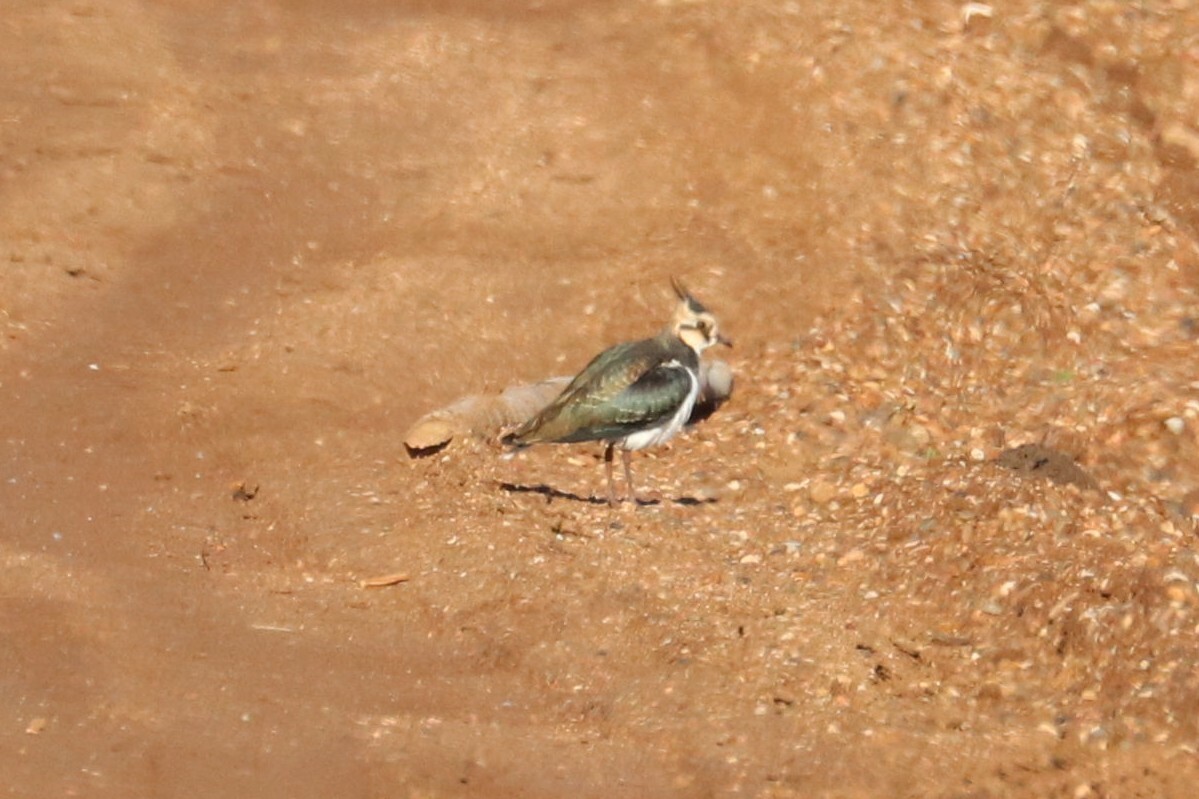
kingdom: Animalia
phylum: Chordata
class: Aves
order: Charadriiformes
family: Charadriidae
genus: Vanellus
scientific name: Vanellus vanellus
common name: Northern lapwing
